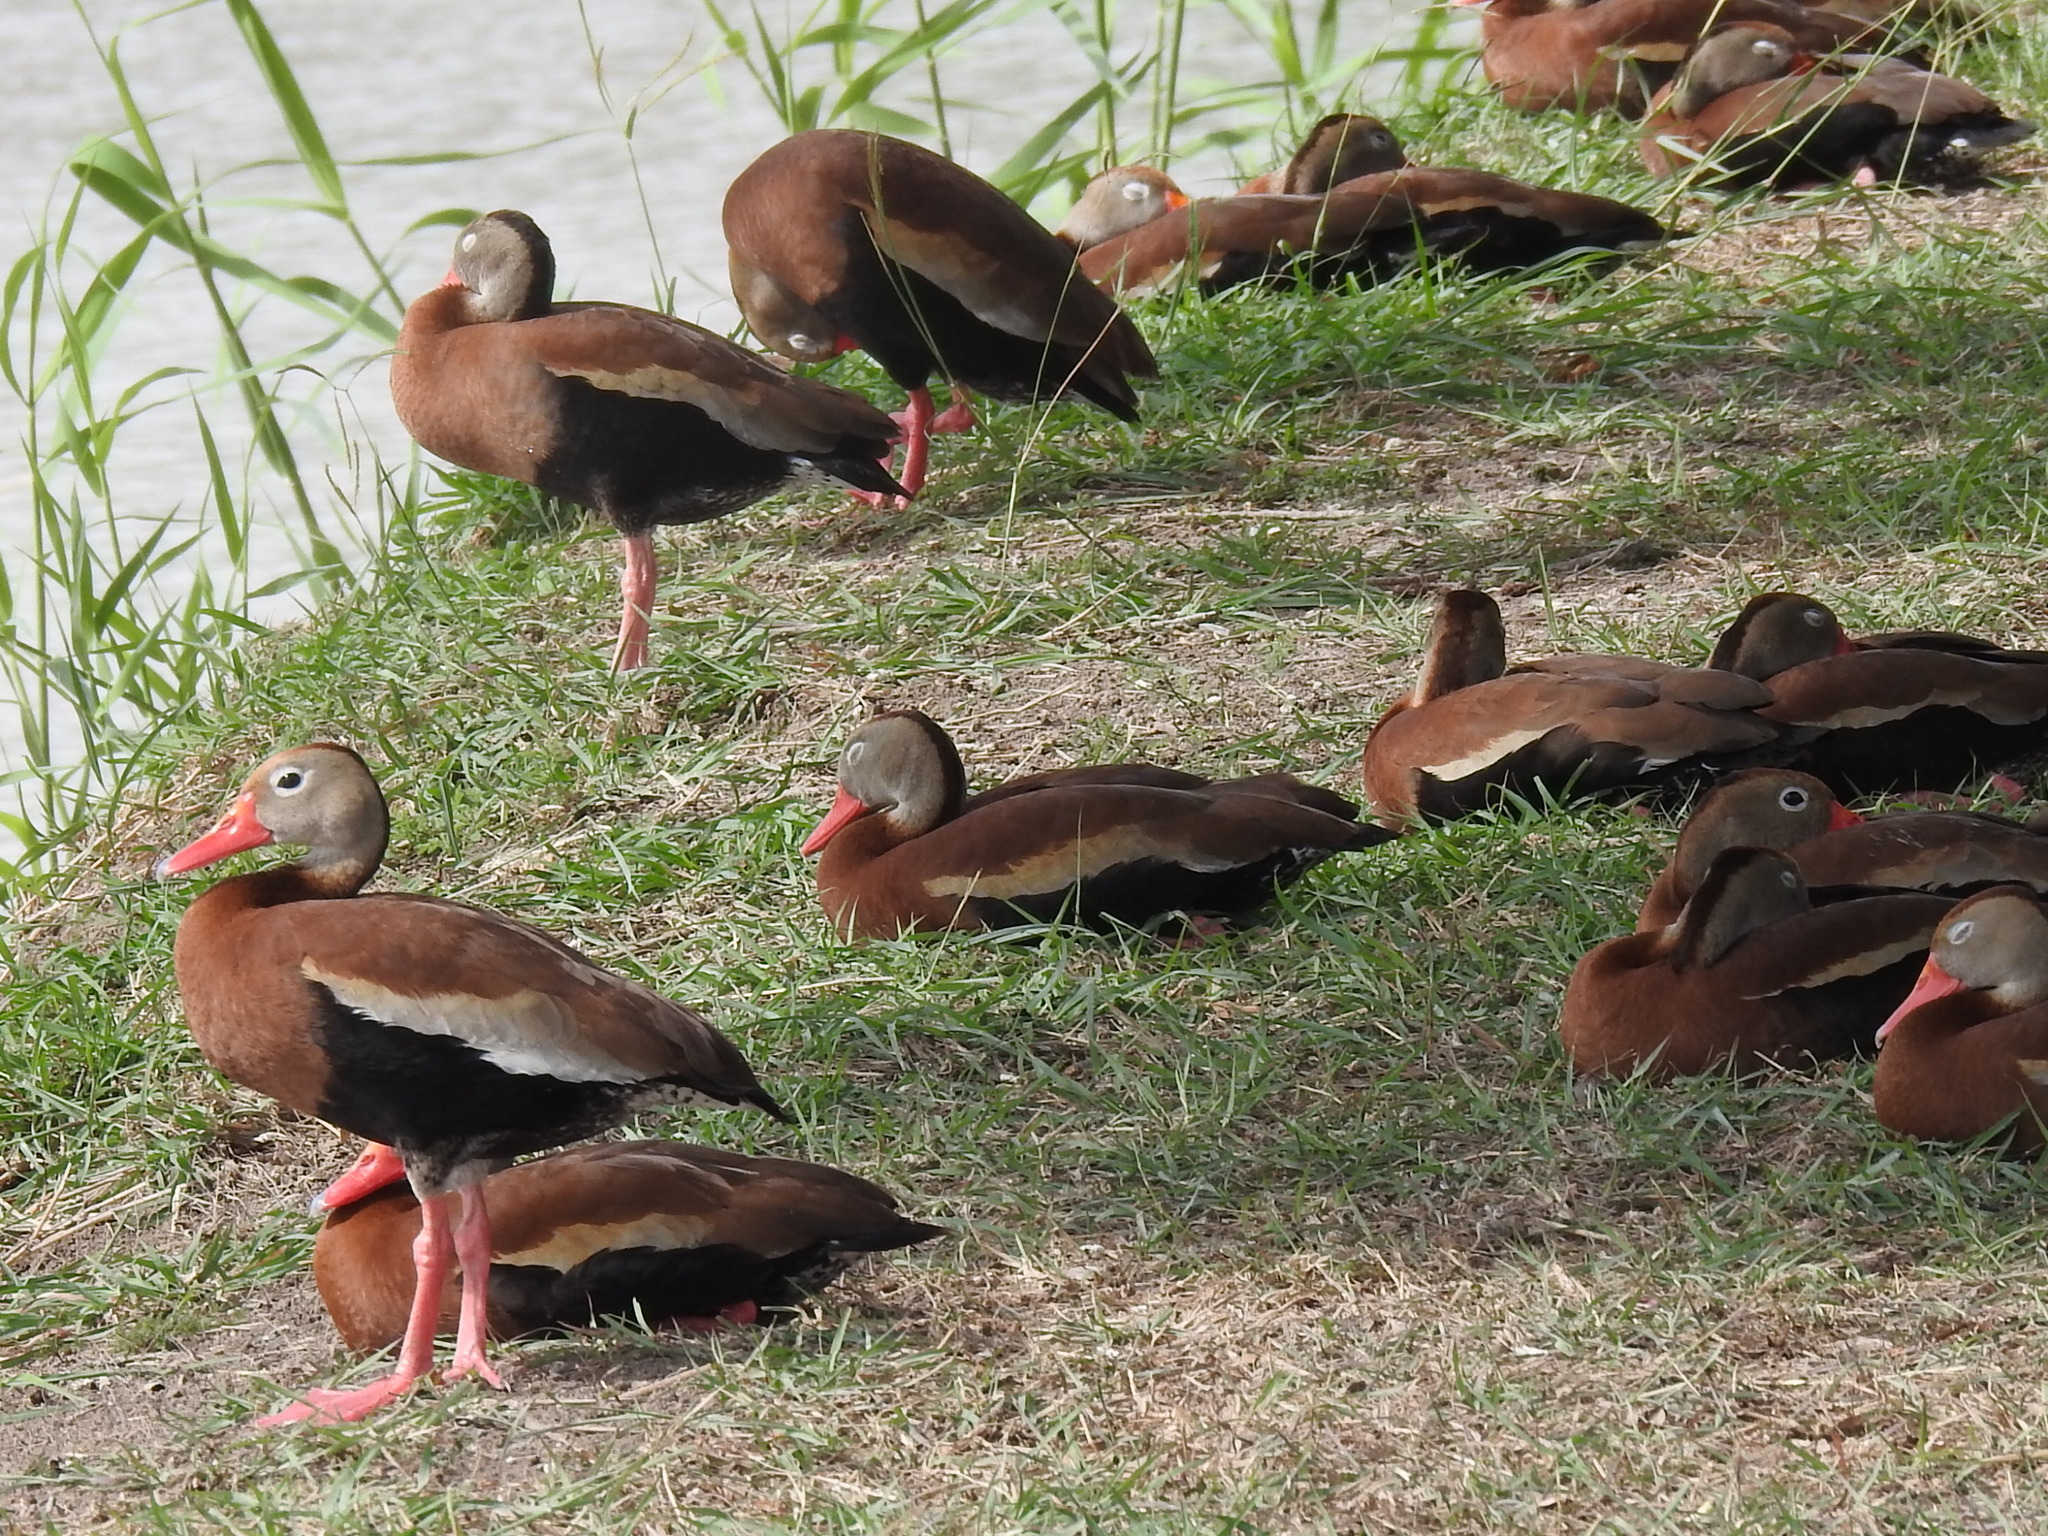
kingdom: Animalia
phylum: Chordata
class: Aves
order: Anseriformes
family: Anatidae
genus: Dendrocygna
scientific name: Dendrocygna autumnalis
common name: Black-bellied whistling duck
